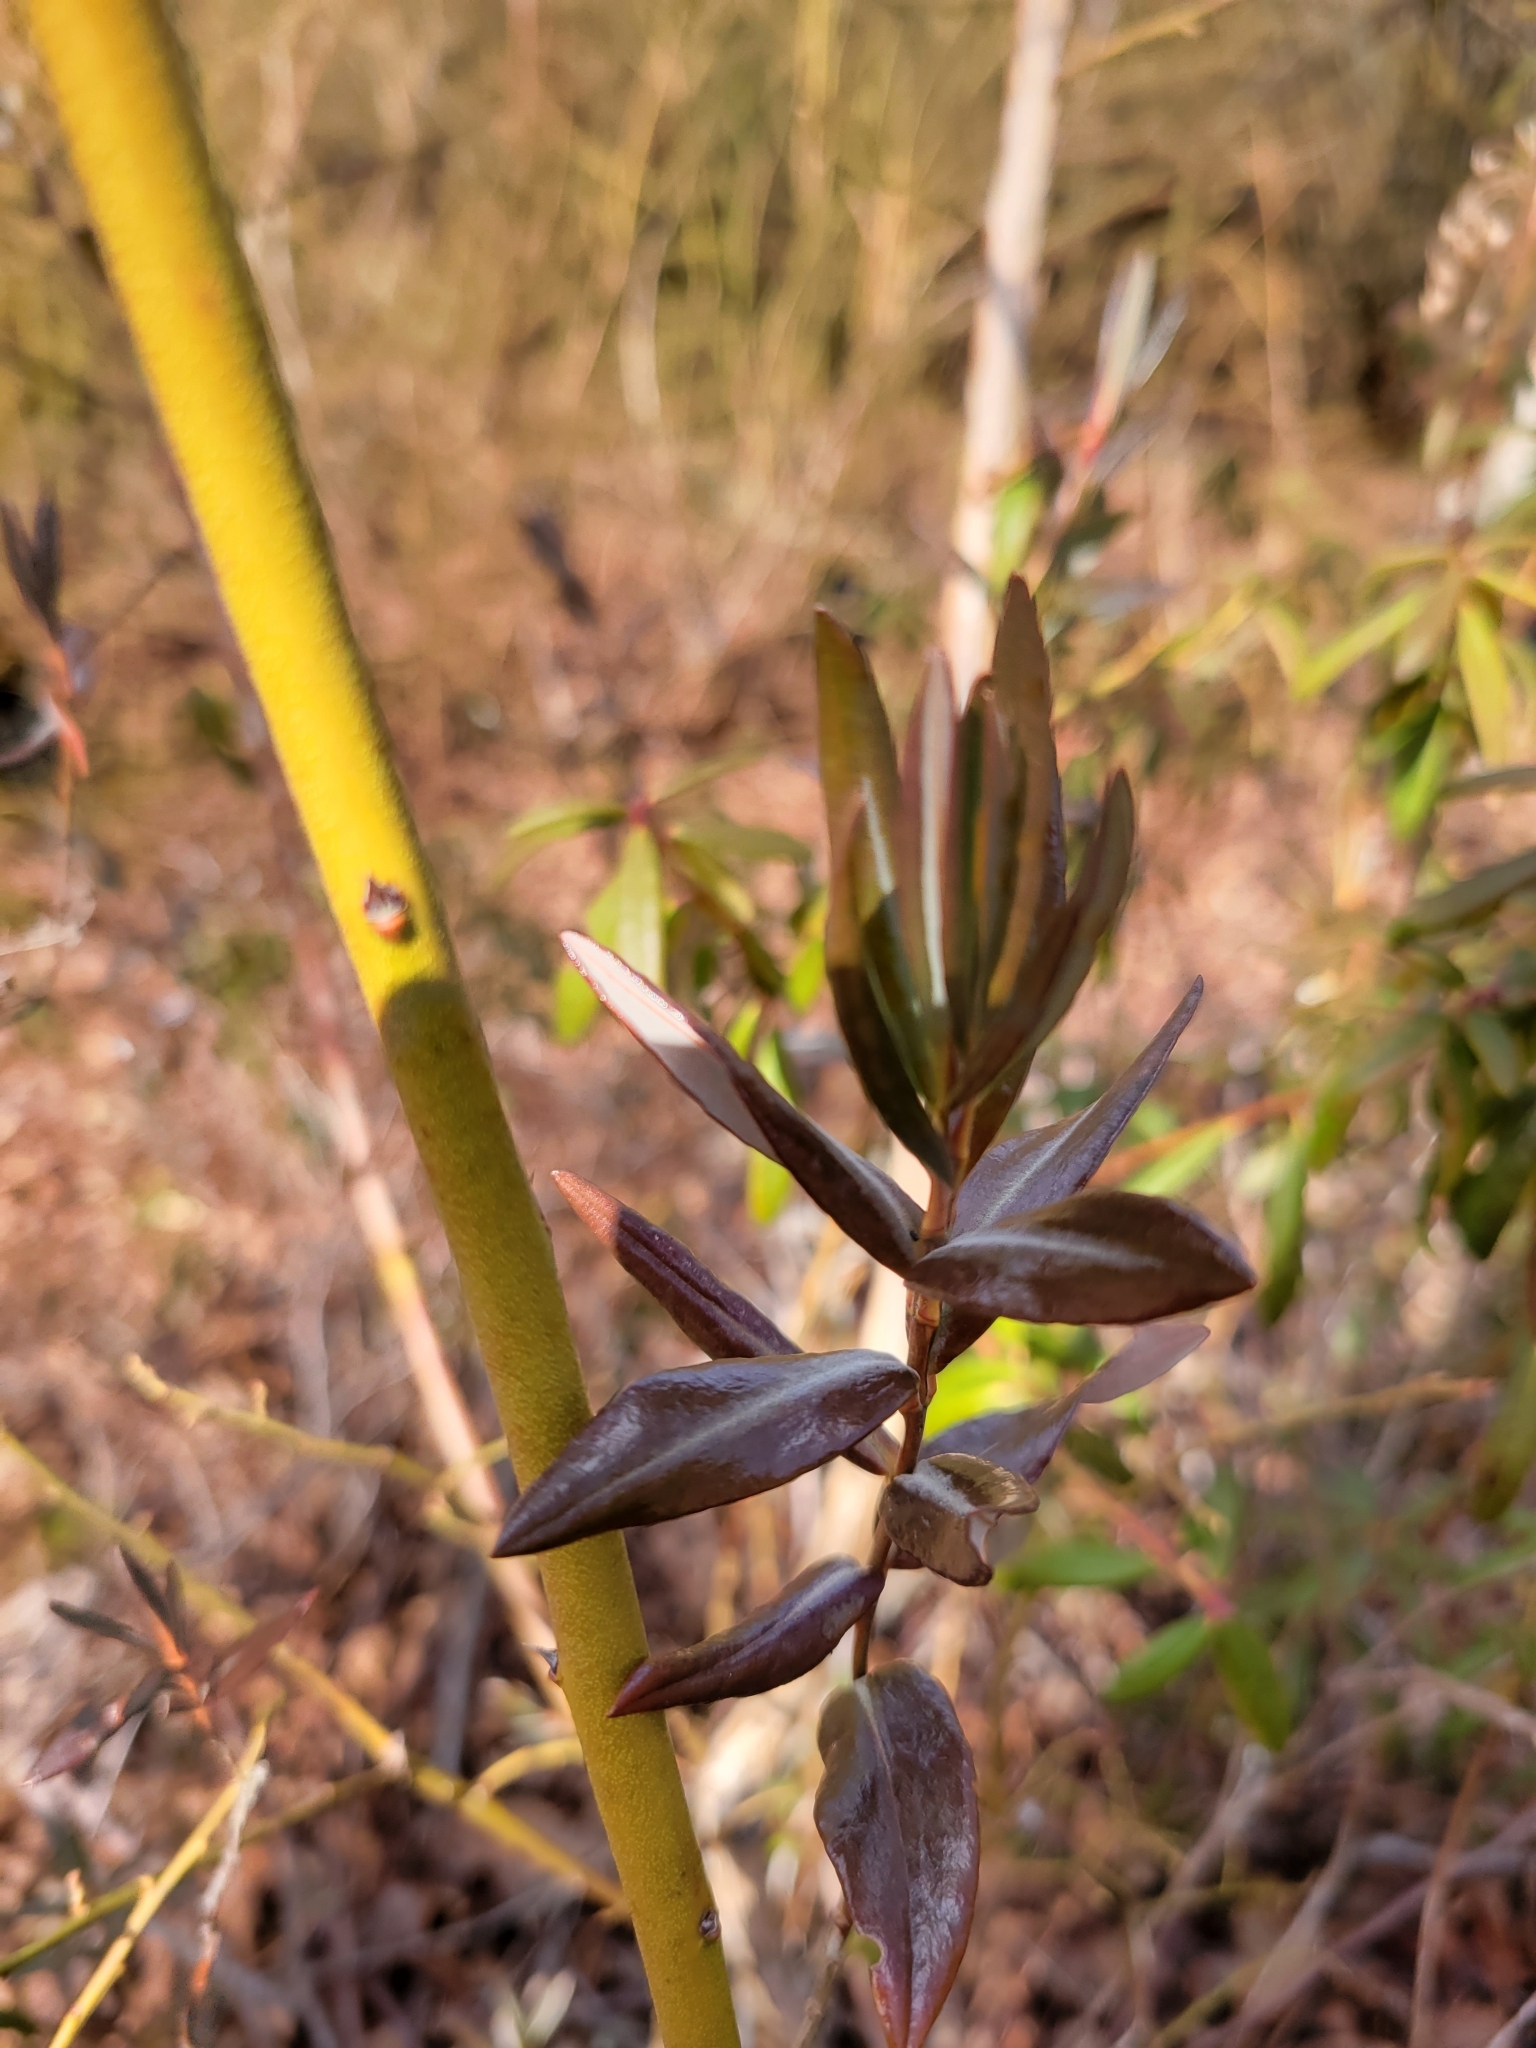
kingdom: Plantae
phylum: Tracheophyta
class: Magnoliopsida
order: Ericales
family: Ericaceae
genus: Kalmia
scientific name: Kalmia microphylla
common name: Alpine bog laurel
